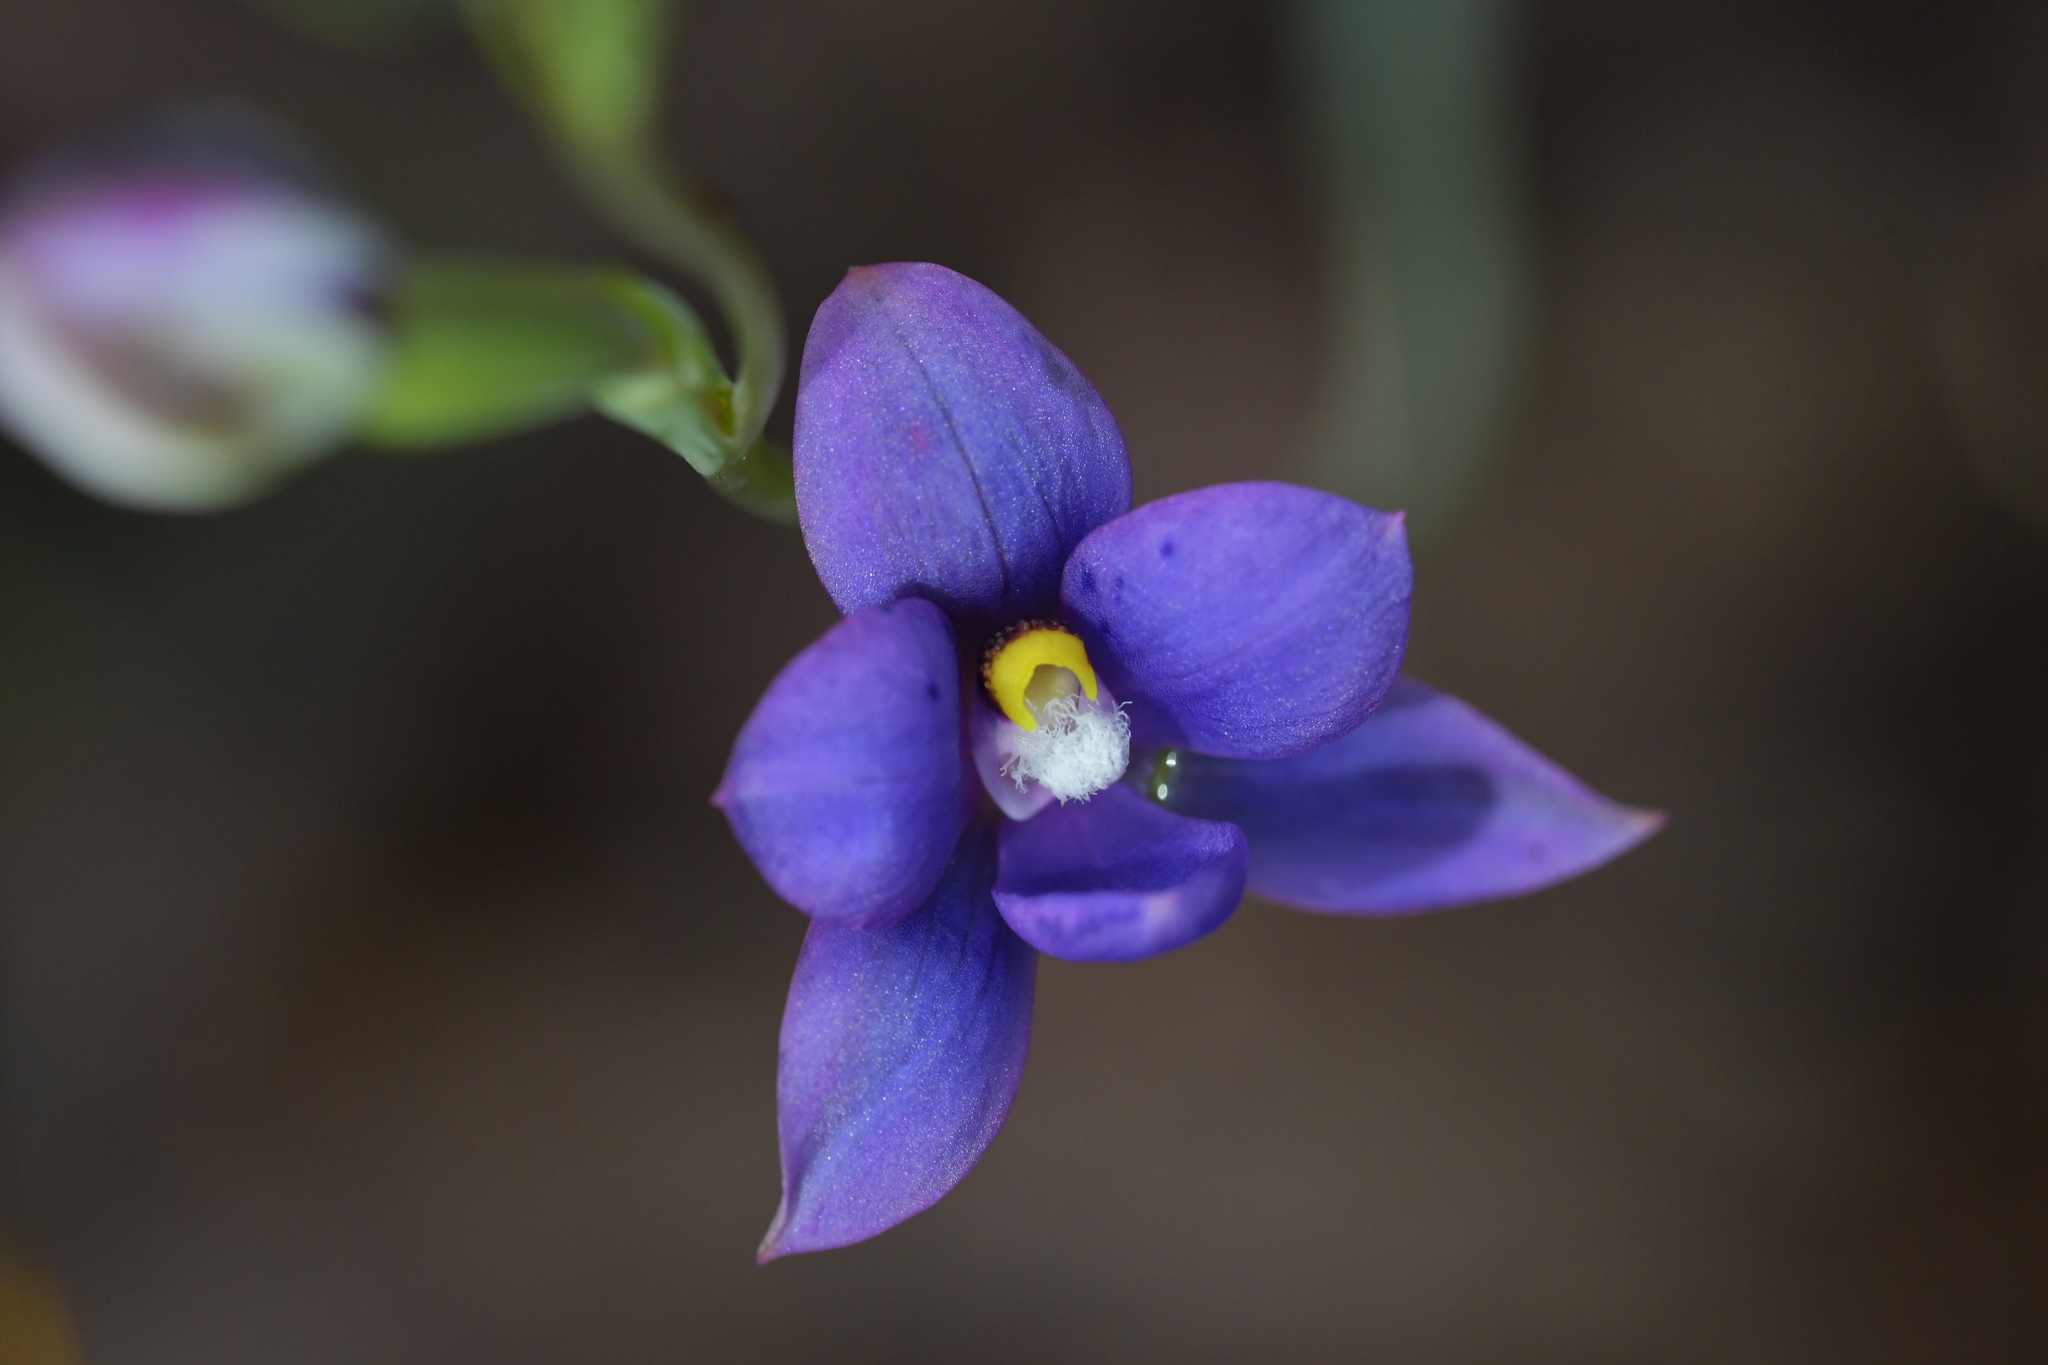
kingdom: Plantae
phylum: Tracheophyta
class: Liliopsida
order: Asparagales
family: Orchidaceae
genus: Thelymitra
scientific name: Thelymitra nervosa
